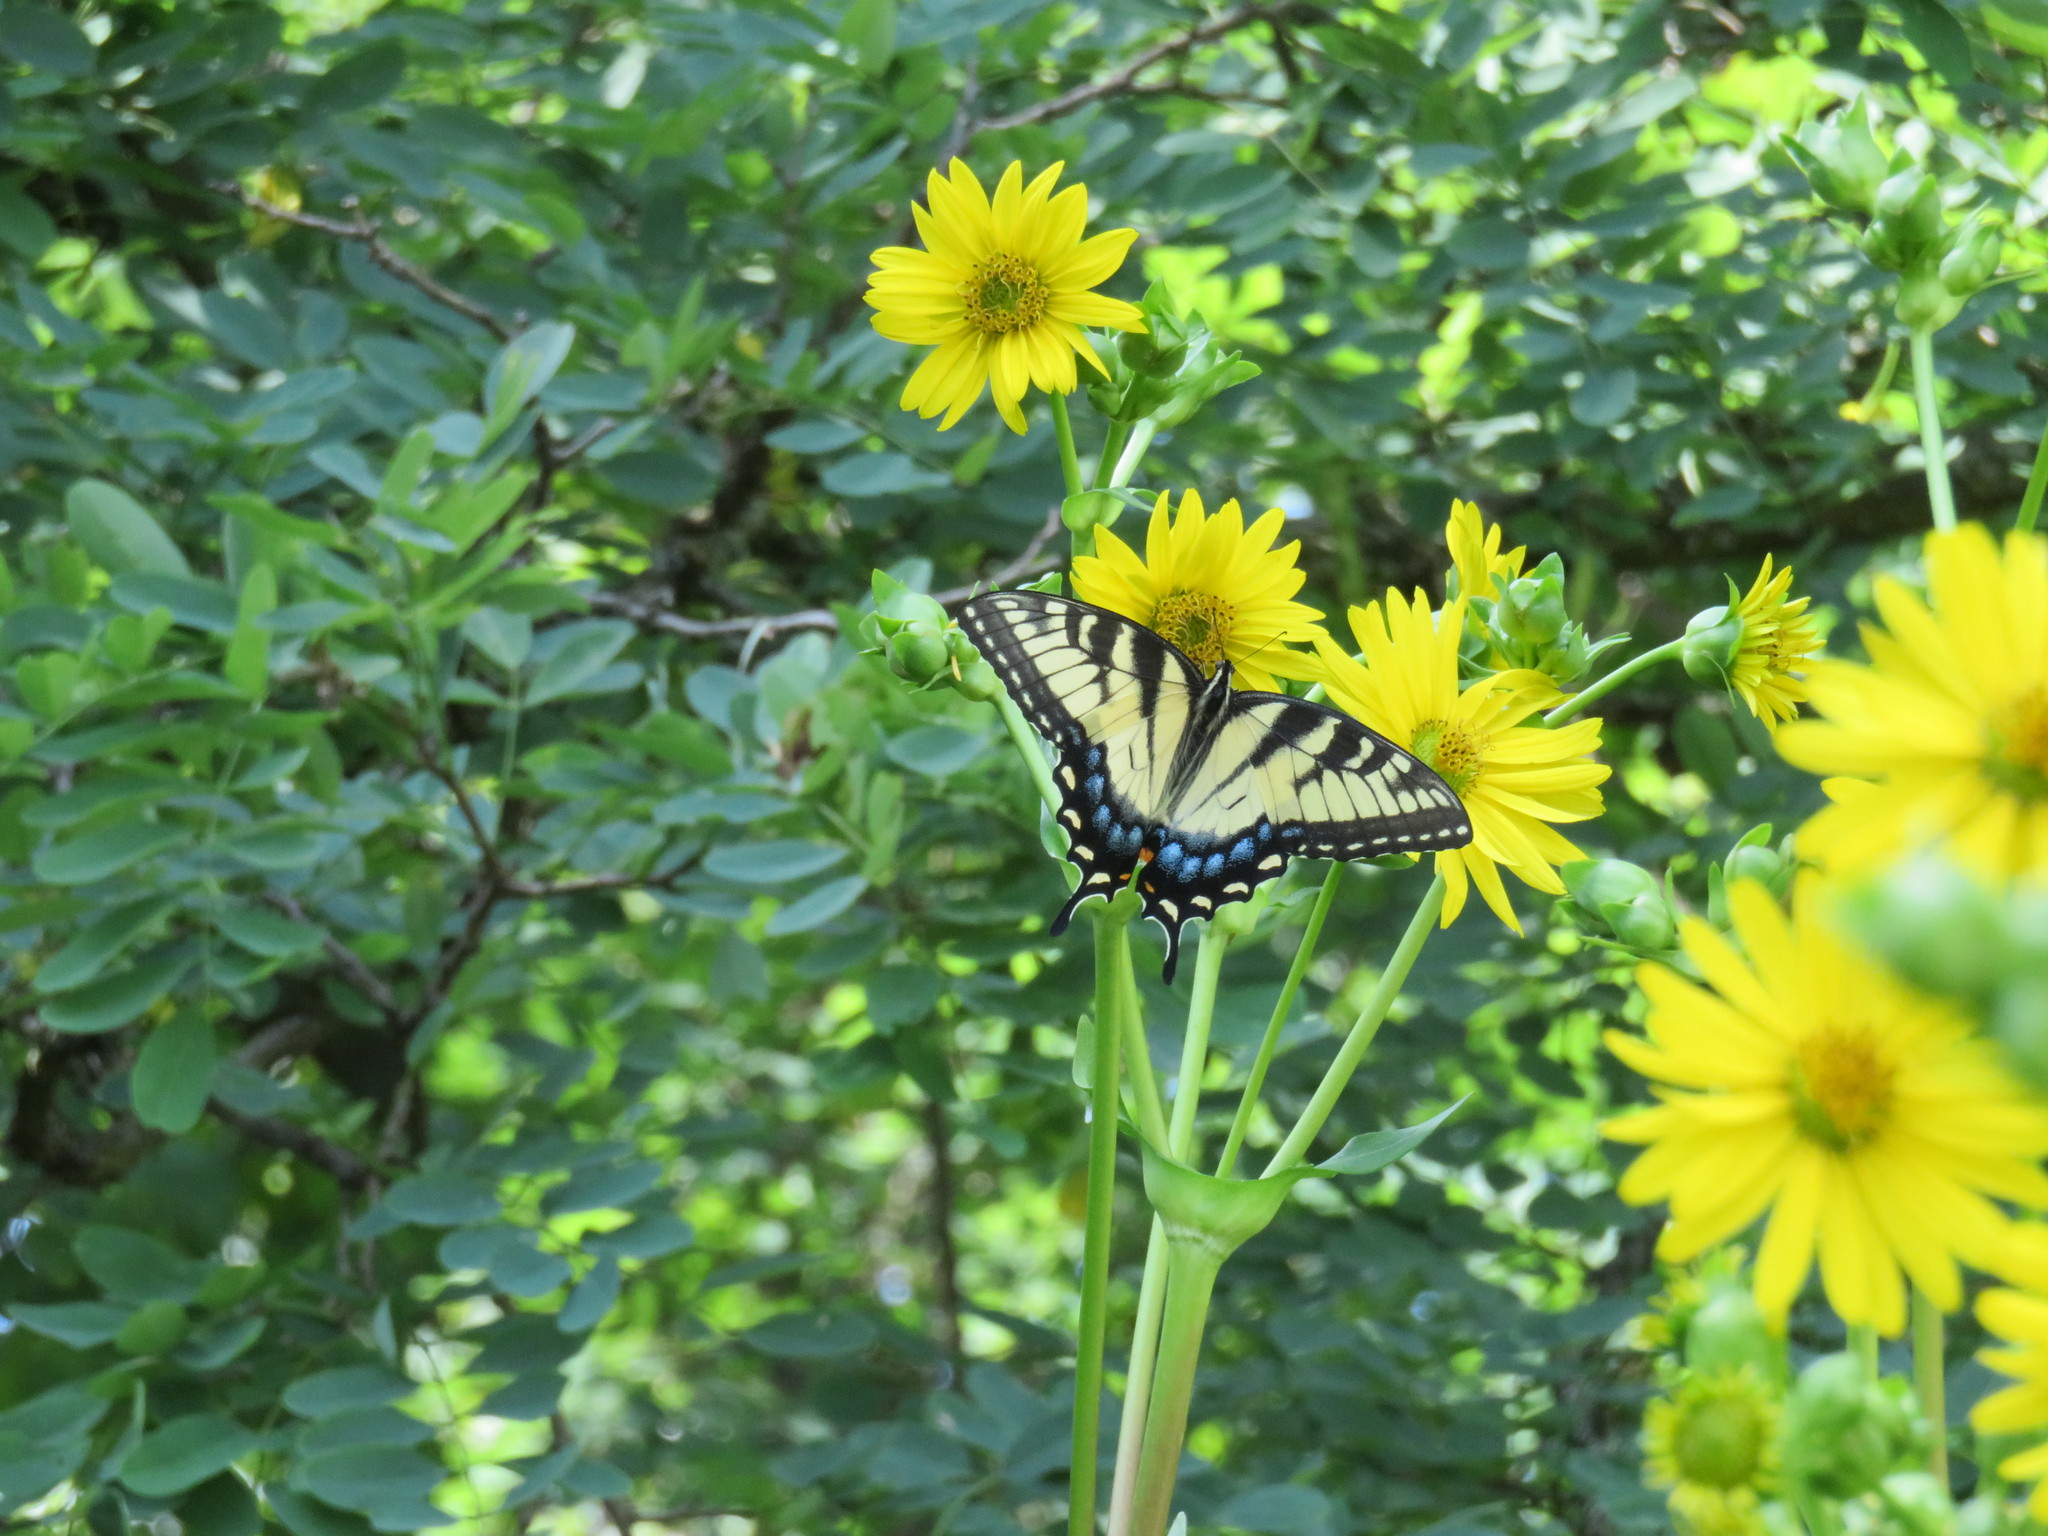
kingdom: Animalia
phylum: Arthropoda
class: Insecta
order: Lepidoptera
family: Papilionidae
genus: Papilio
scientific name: Papilio glaucus
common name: Tiger swallowtail
